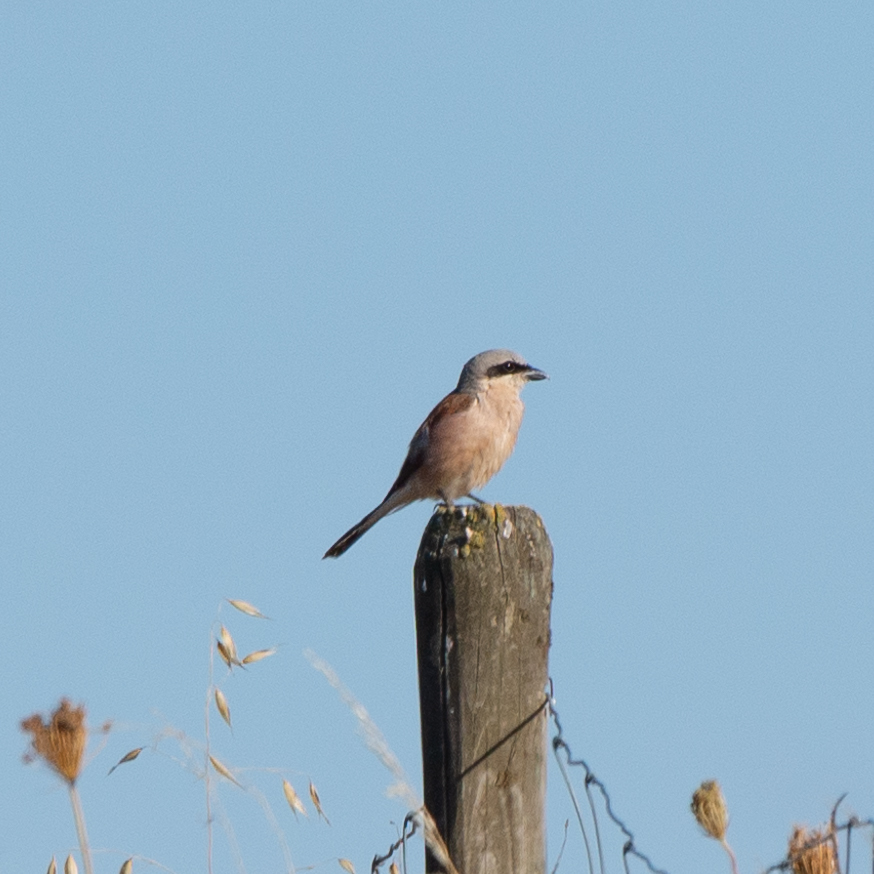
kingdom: Animalia
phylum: Chordata
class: Aves
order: Passeriformes
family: Laniidae
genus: Lanius
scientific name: Lanius collurio
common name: Red-backed shrike
